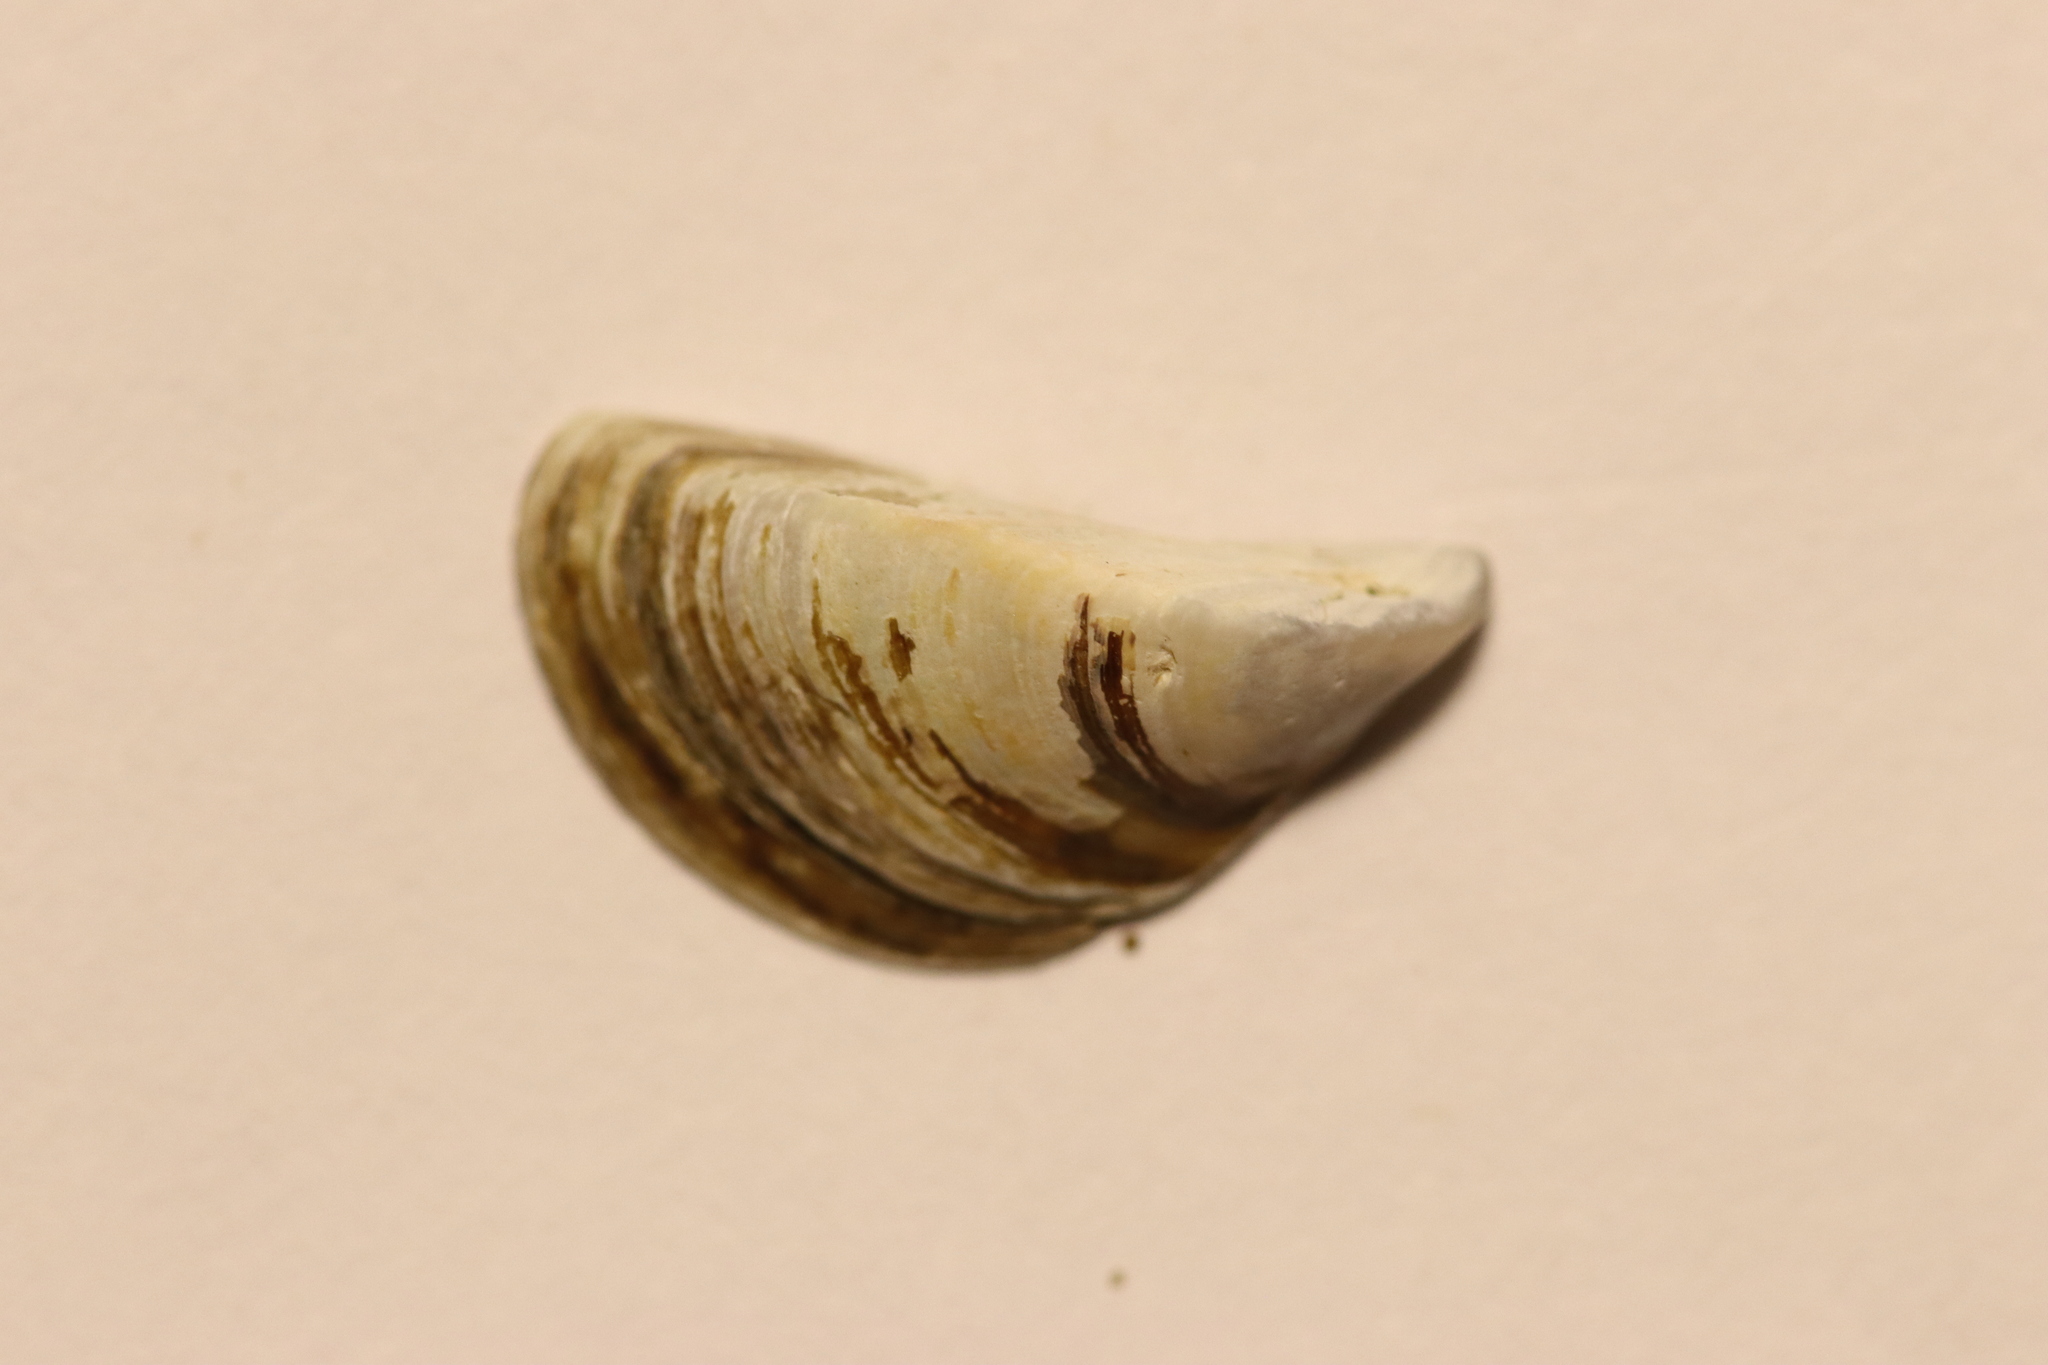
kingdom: Animalia
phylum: Mollusca
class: Bivalvia
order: Myida
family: Dreissenidae
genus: Dreissena
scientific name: Dreissena polymorpha
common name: Zebra mussel
